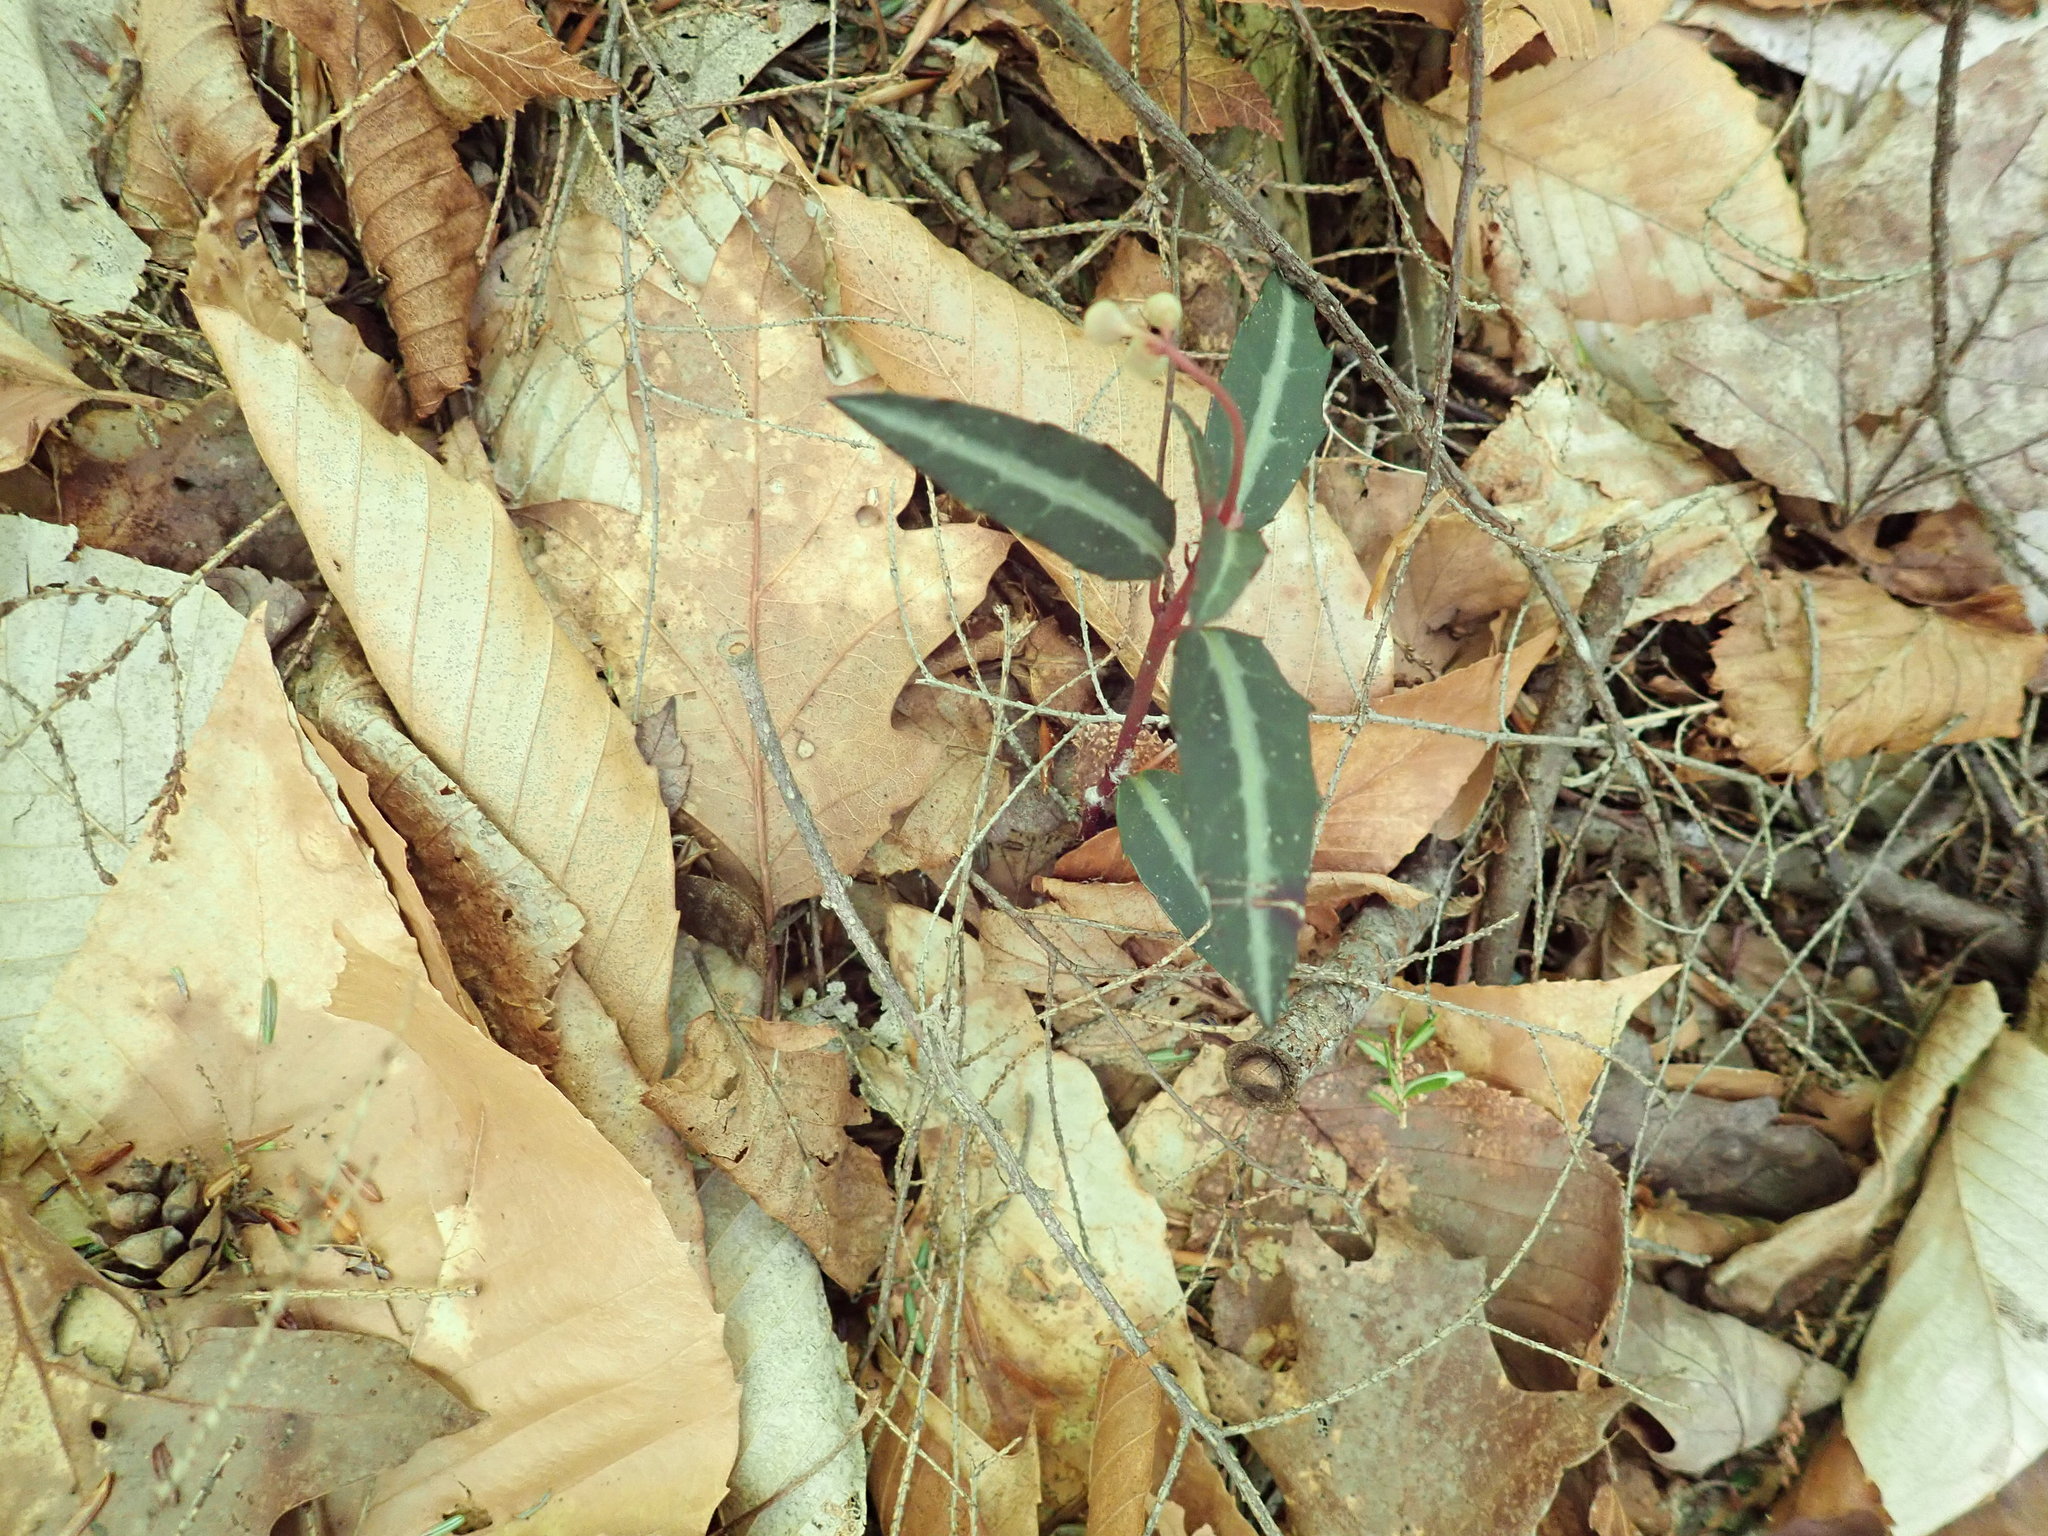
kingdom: Plantae
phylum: Tracheophyta
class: Magnoliopsida
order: Ericales
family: Ericaceae
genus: Chimaphila
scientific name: Chimaphila maculata
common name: Spotted pipsissewa
